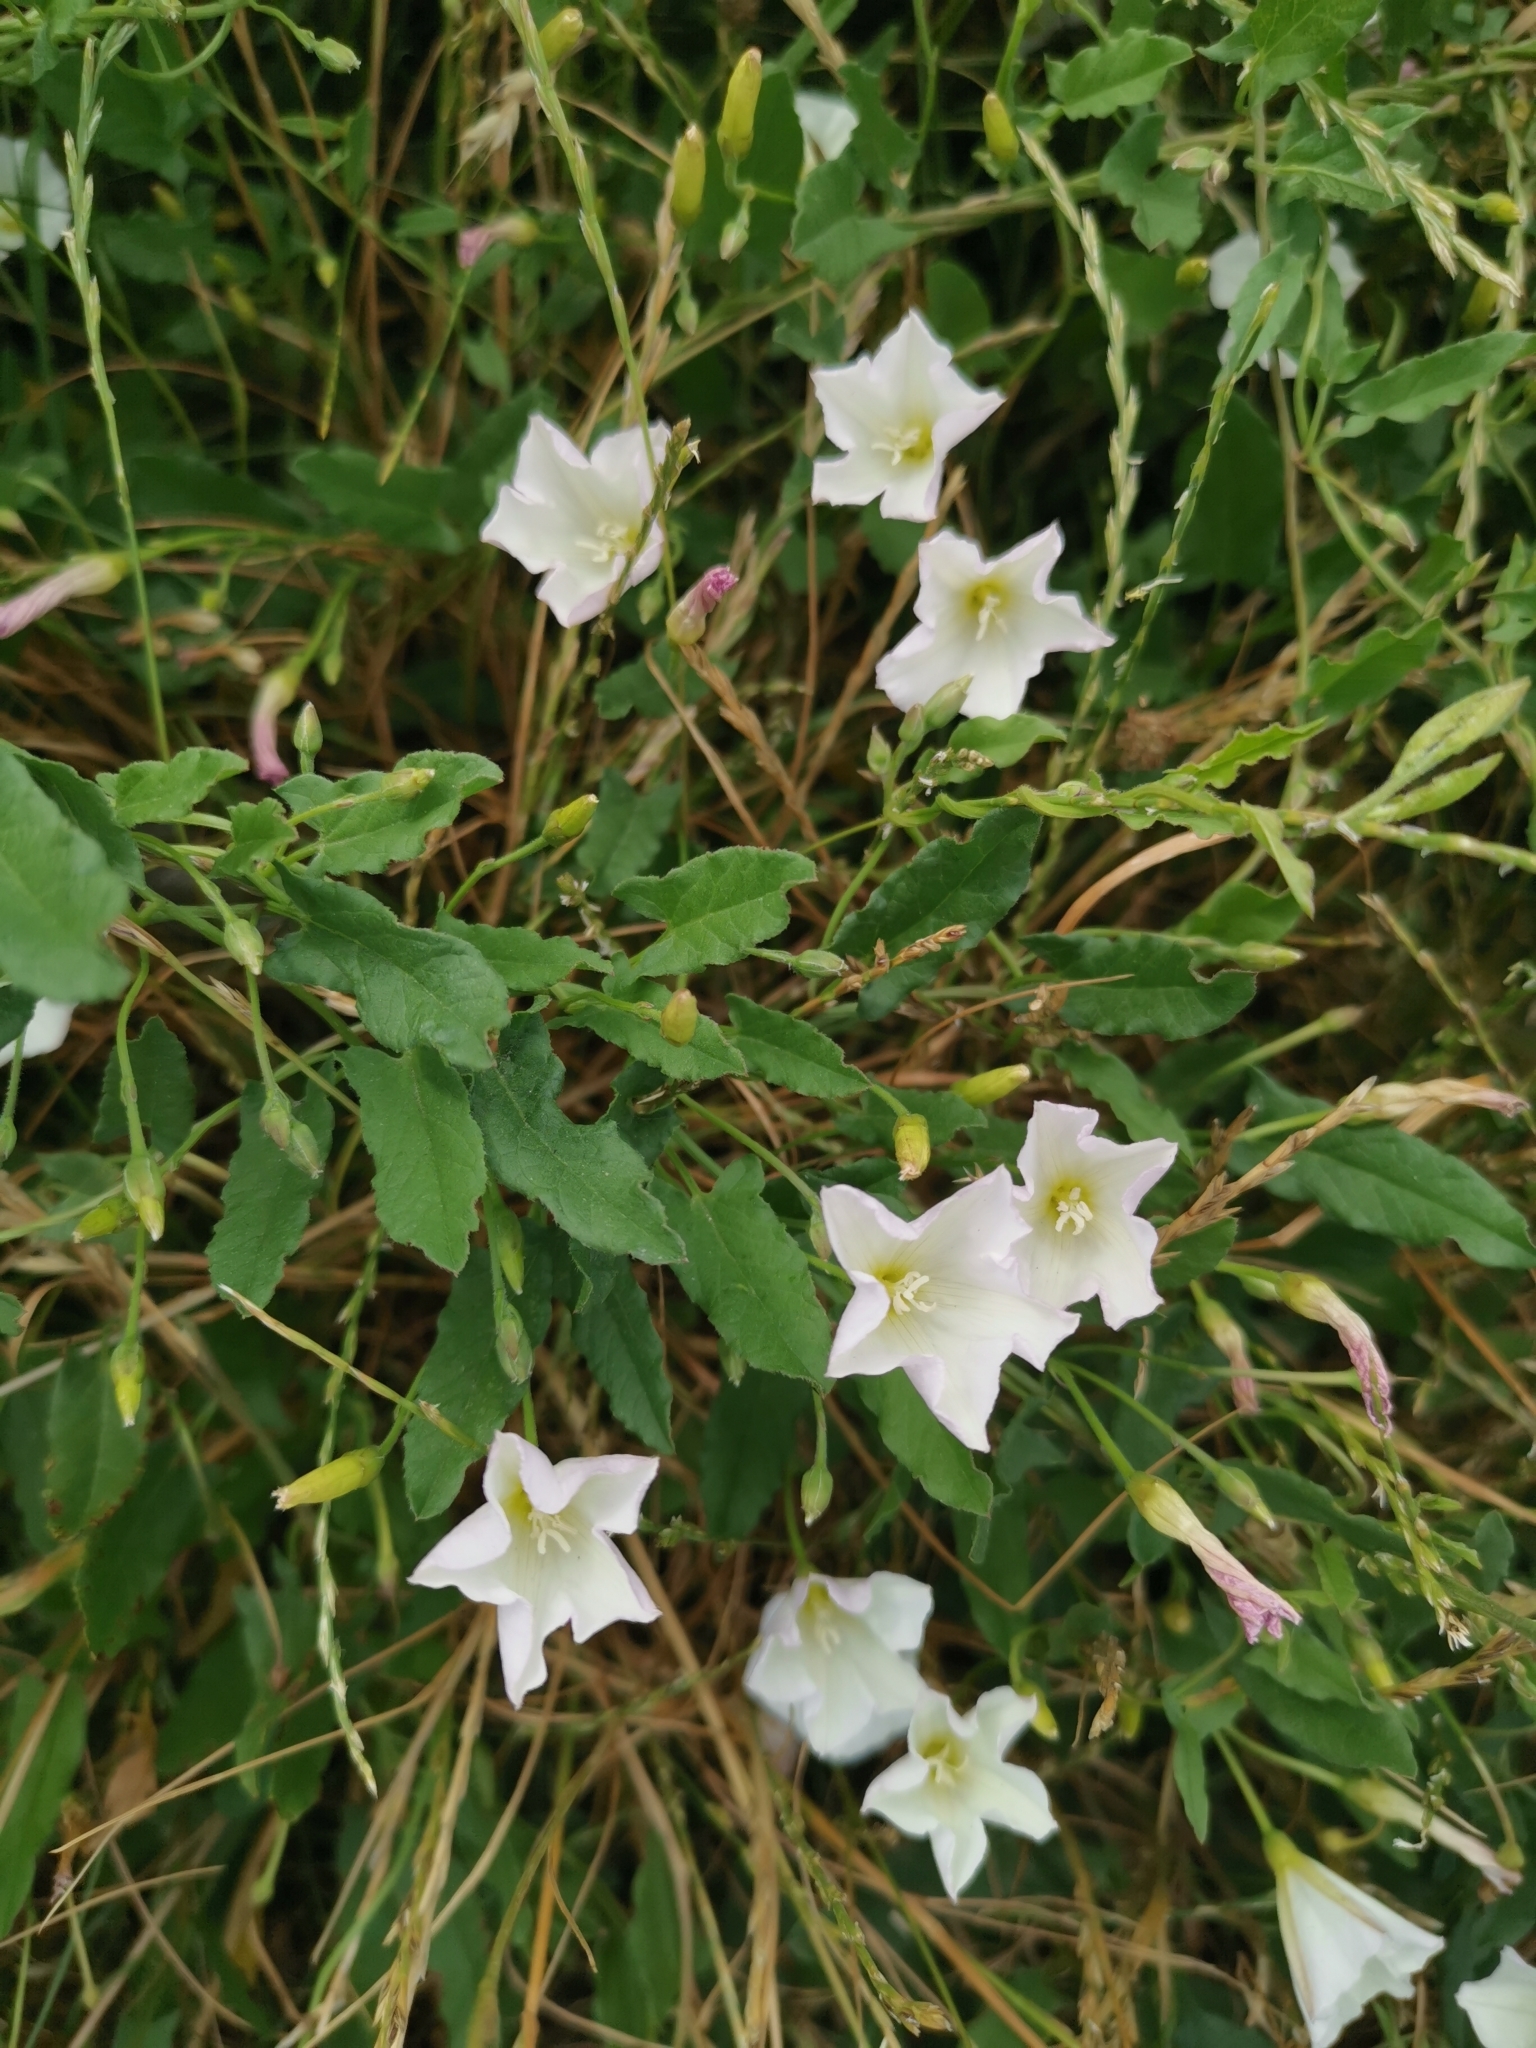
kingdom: Plantae
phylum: Tracheophyta
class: Magnoliopsida
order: Solanales
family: Convolvulaceae
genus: Convolvulus
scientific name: Convolvulus arvensis
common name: Field bindweed
